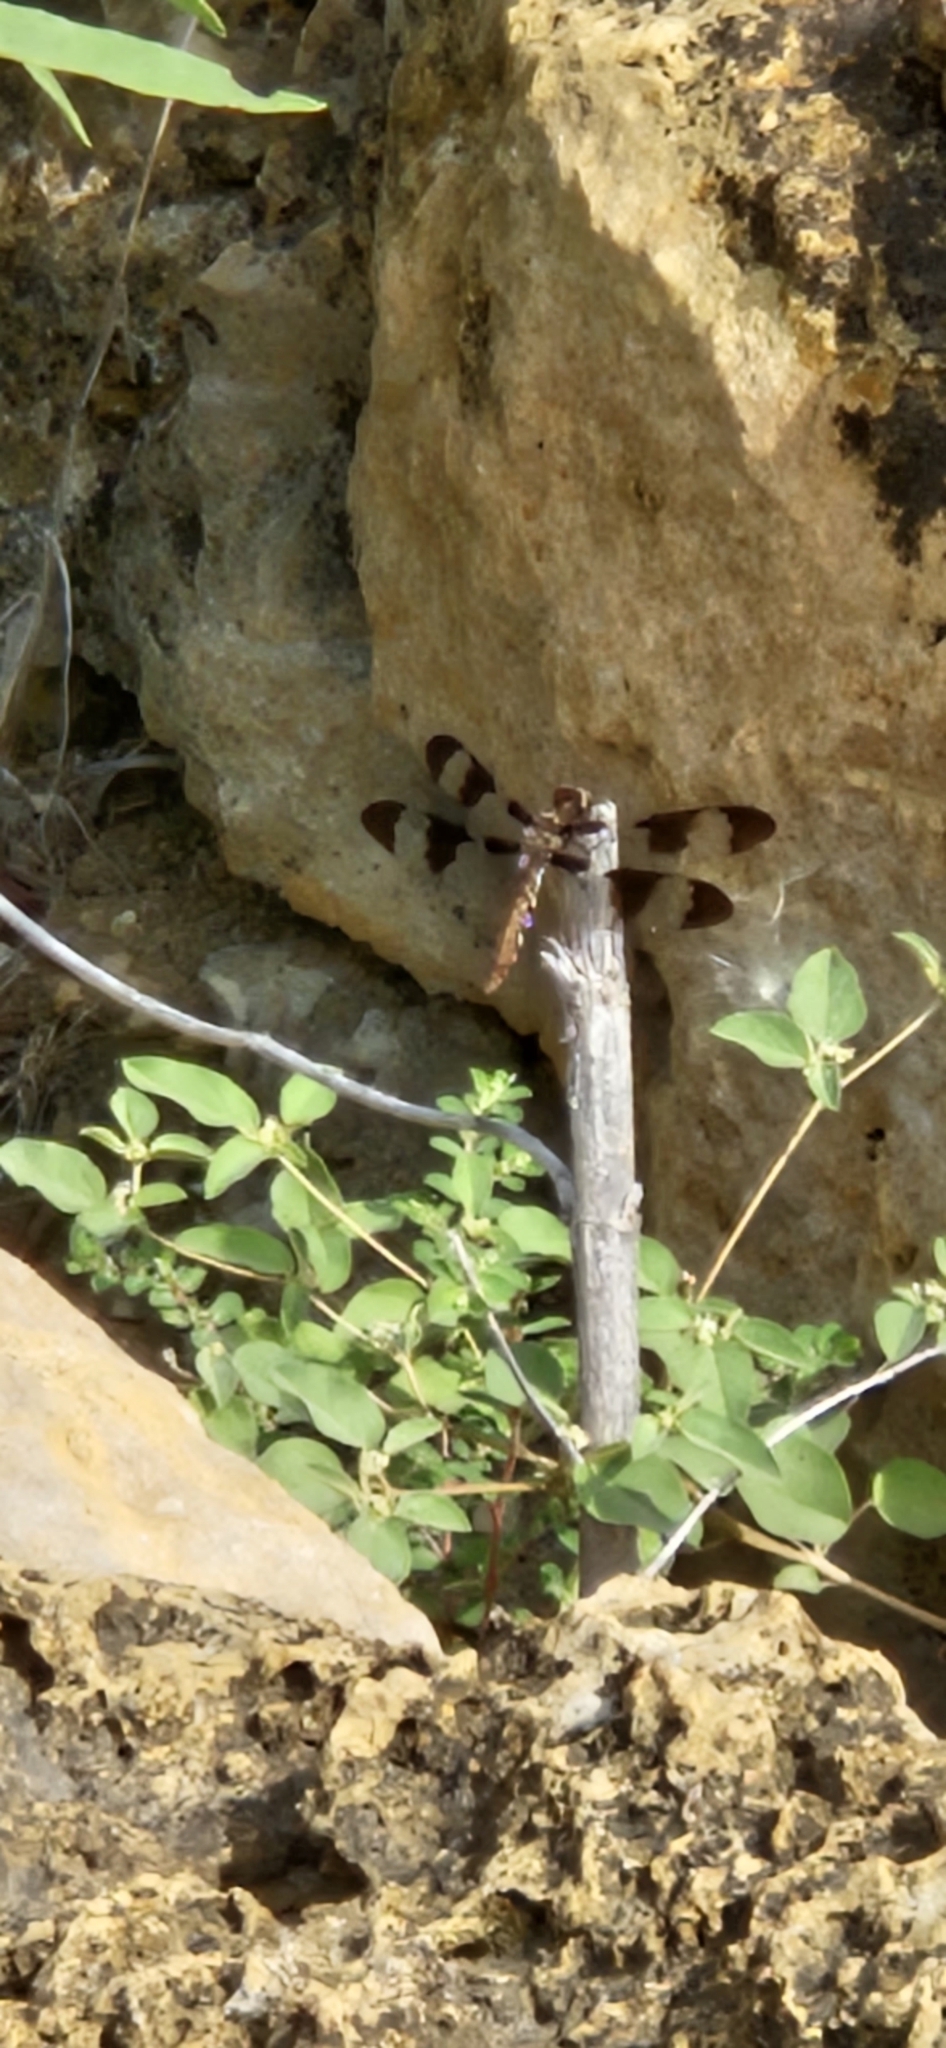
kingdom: Animalia
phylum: Arthropoda
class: Insecta
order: Odonata
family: Libellulidae
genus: Plathemis
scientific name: Plathemis lydia
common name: Common whitetail
